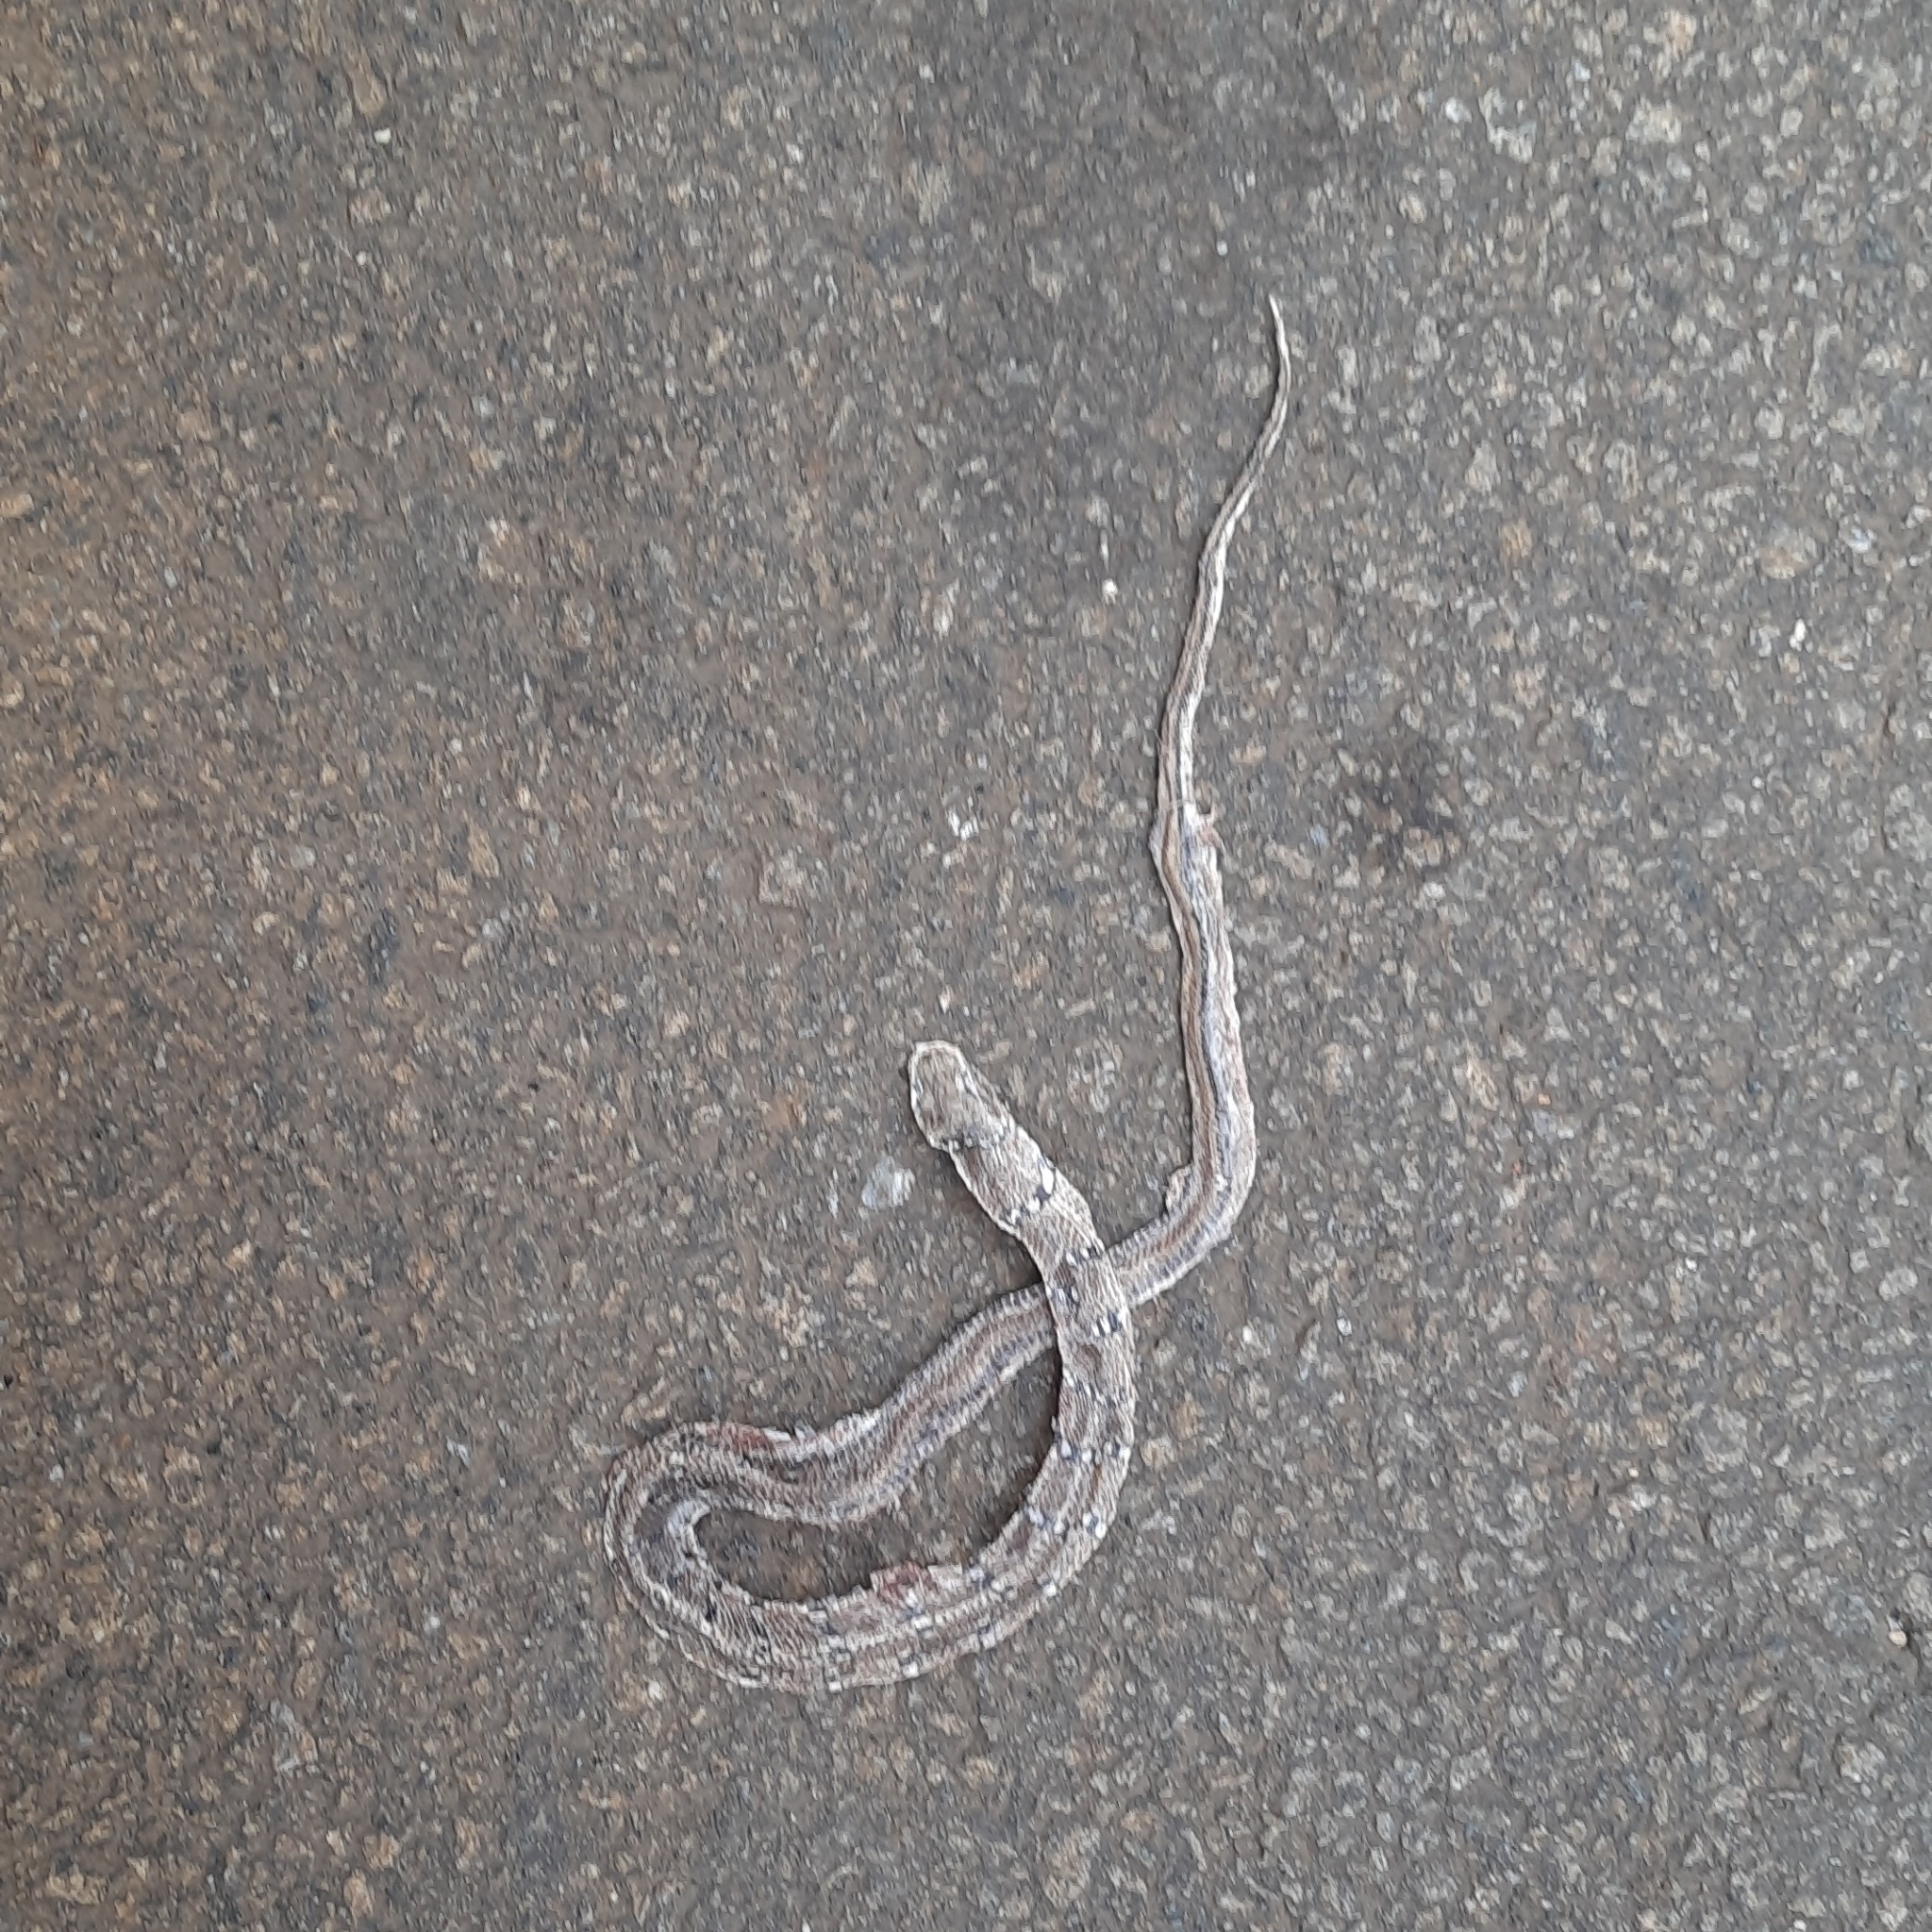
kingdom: Animalia
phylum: Chordata
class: Squamata
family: Colubridae
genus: Coelognathus
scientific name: Coelognathus helena
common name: Trinket snake
